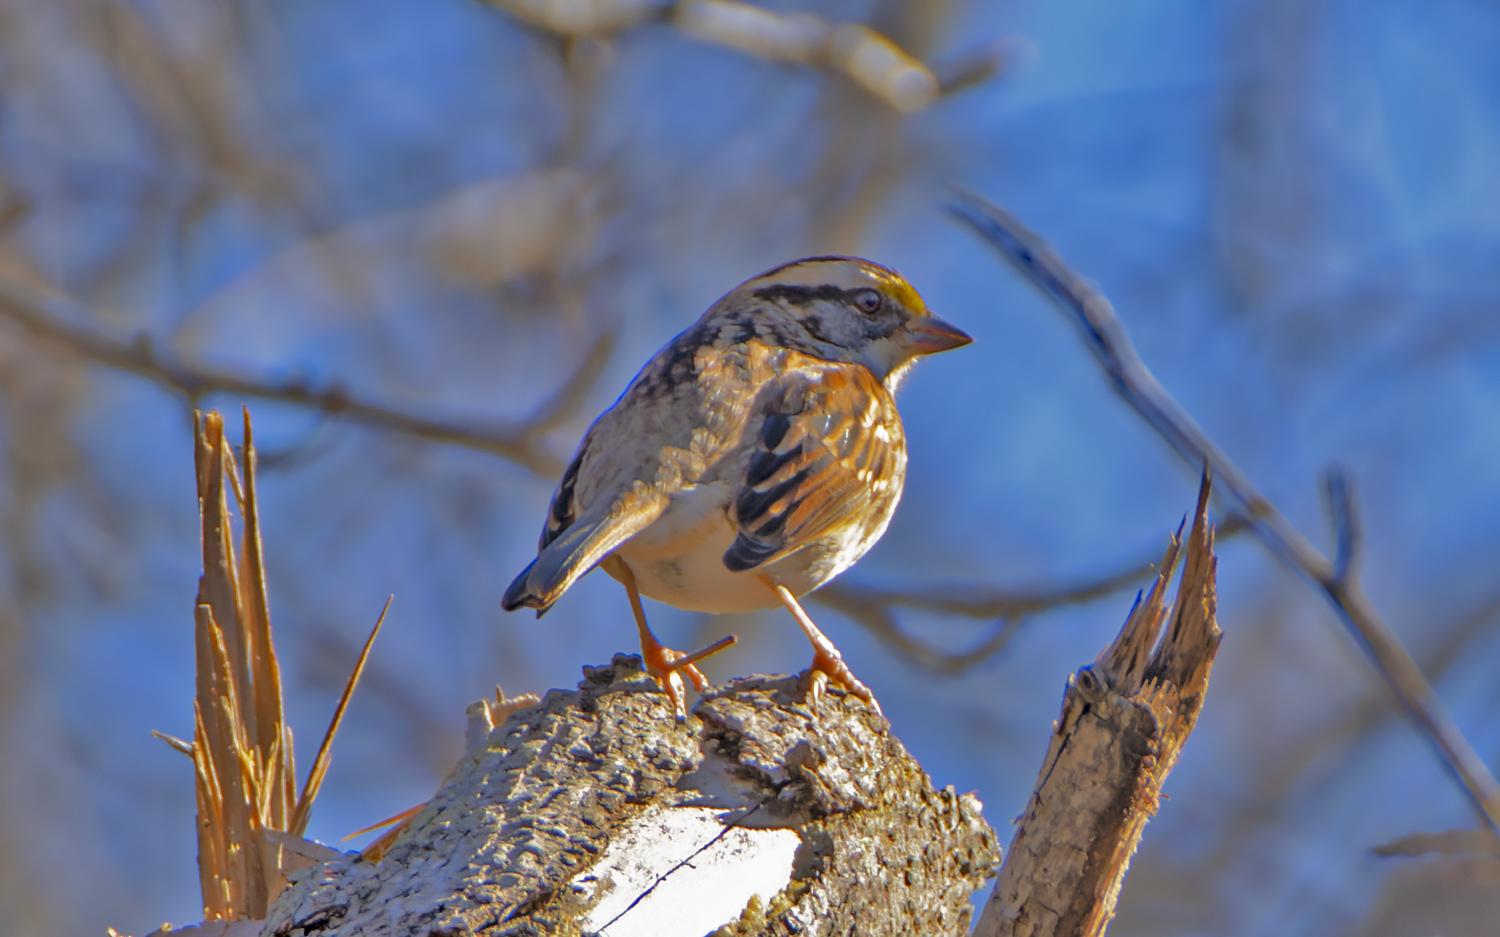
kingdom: Animalia
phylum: Chordata
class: Aves
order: Passeriformes
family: Passerellidae
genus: Zonotrichia
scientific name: Zonotrichia albicollis
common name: White-throated sparrow
